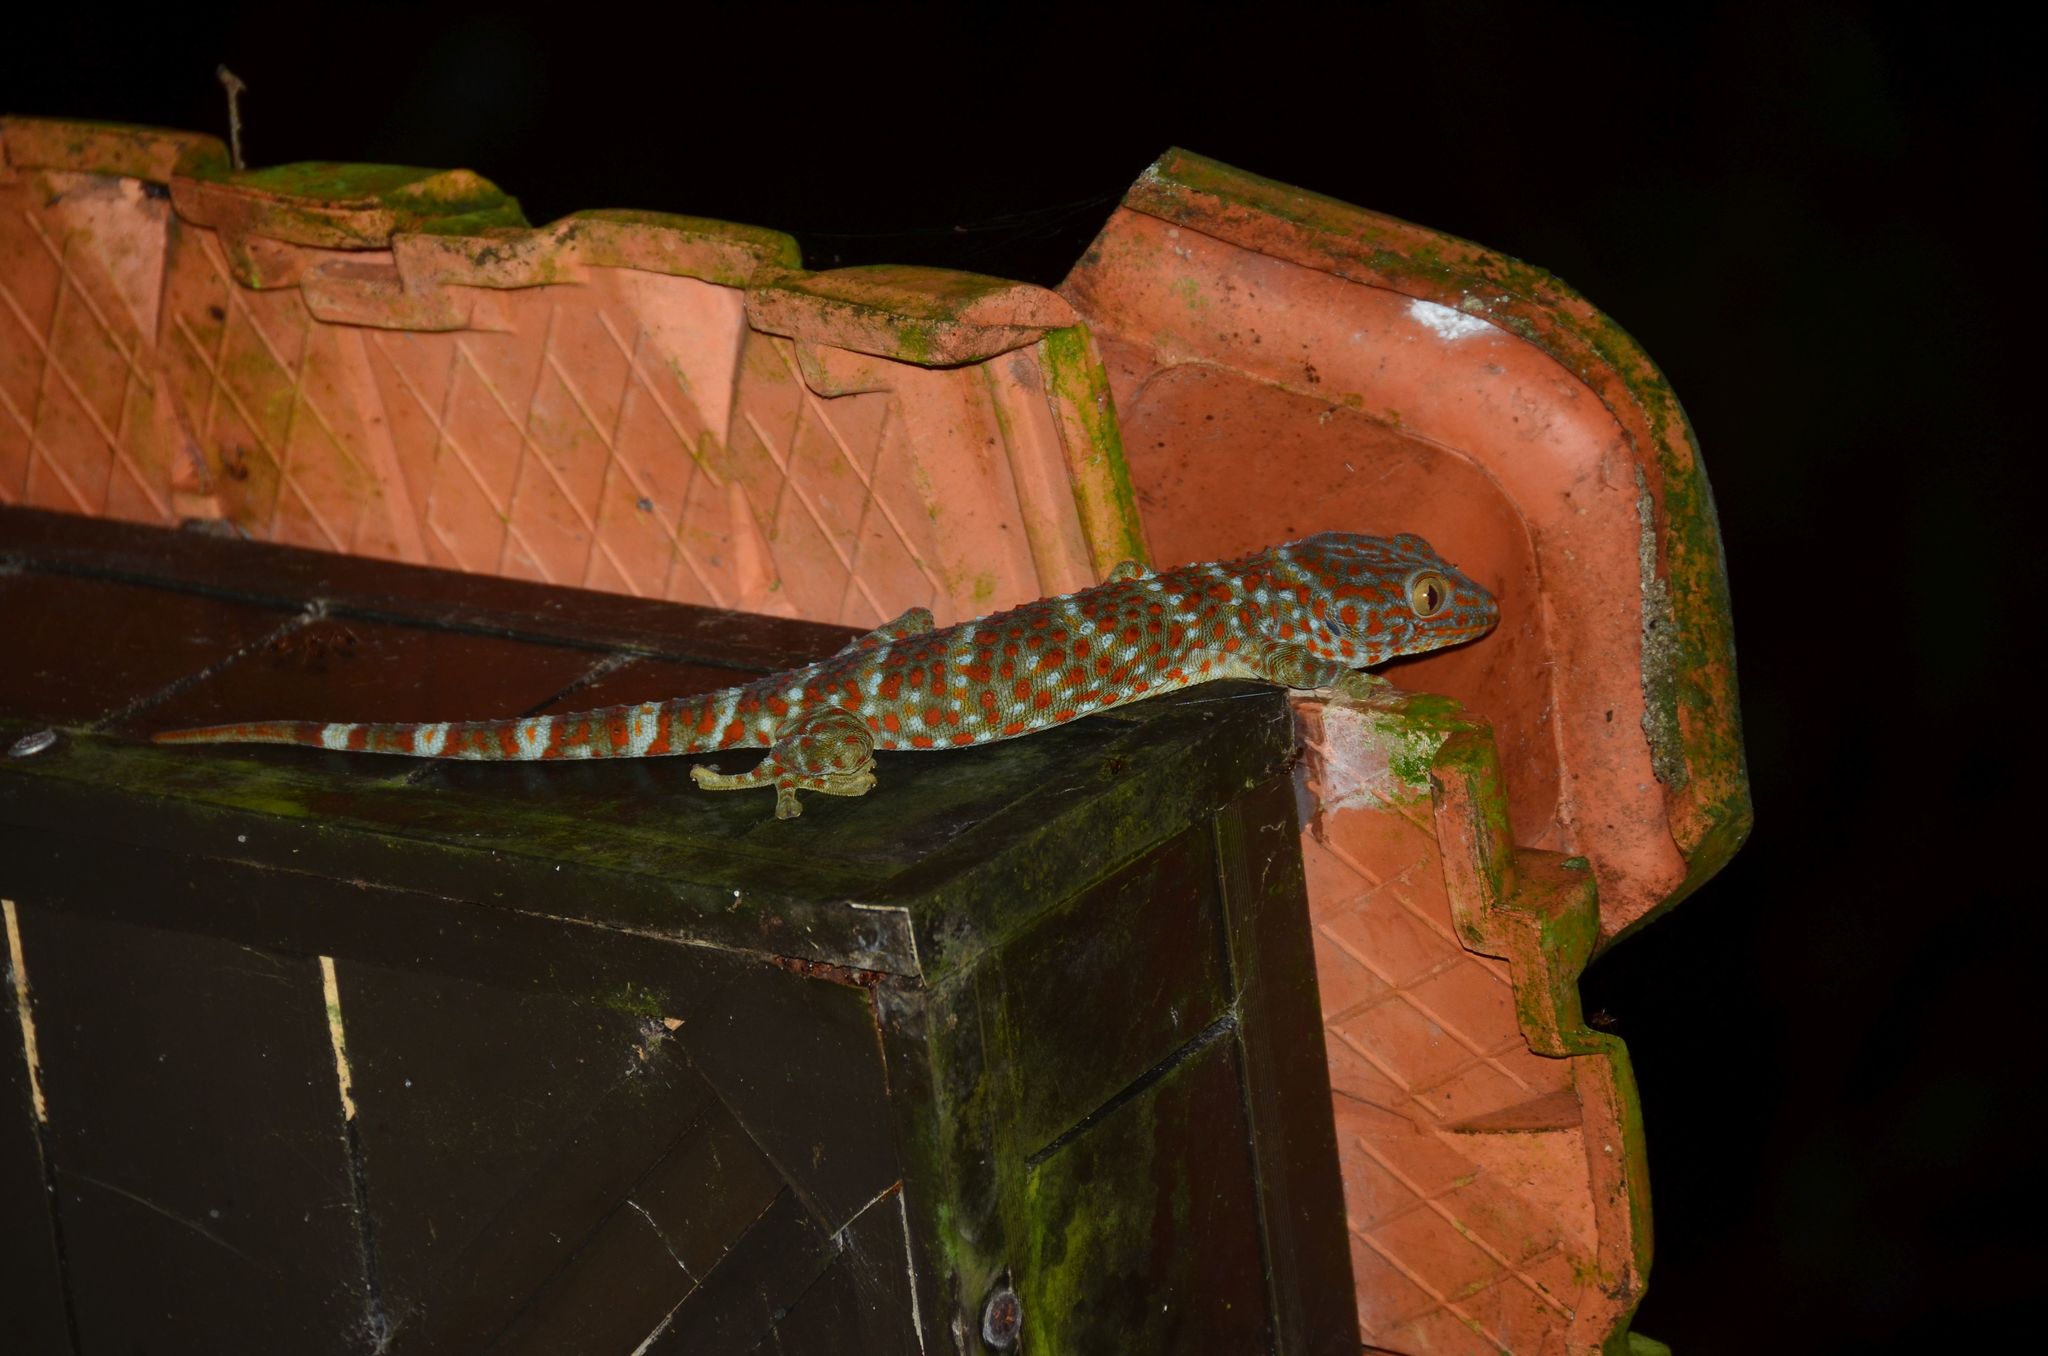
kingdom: Animalia
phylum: Chordata
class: Squamata
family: Gekkonidae
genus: Gekko
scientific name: Gekko gecko
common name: Tokay gecko
